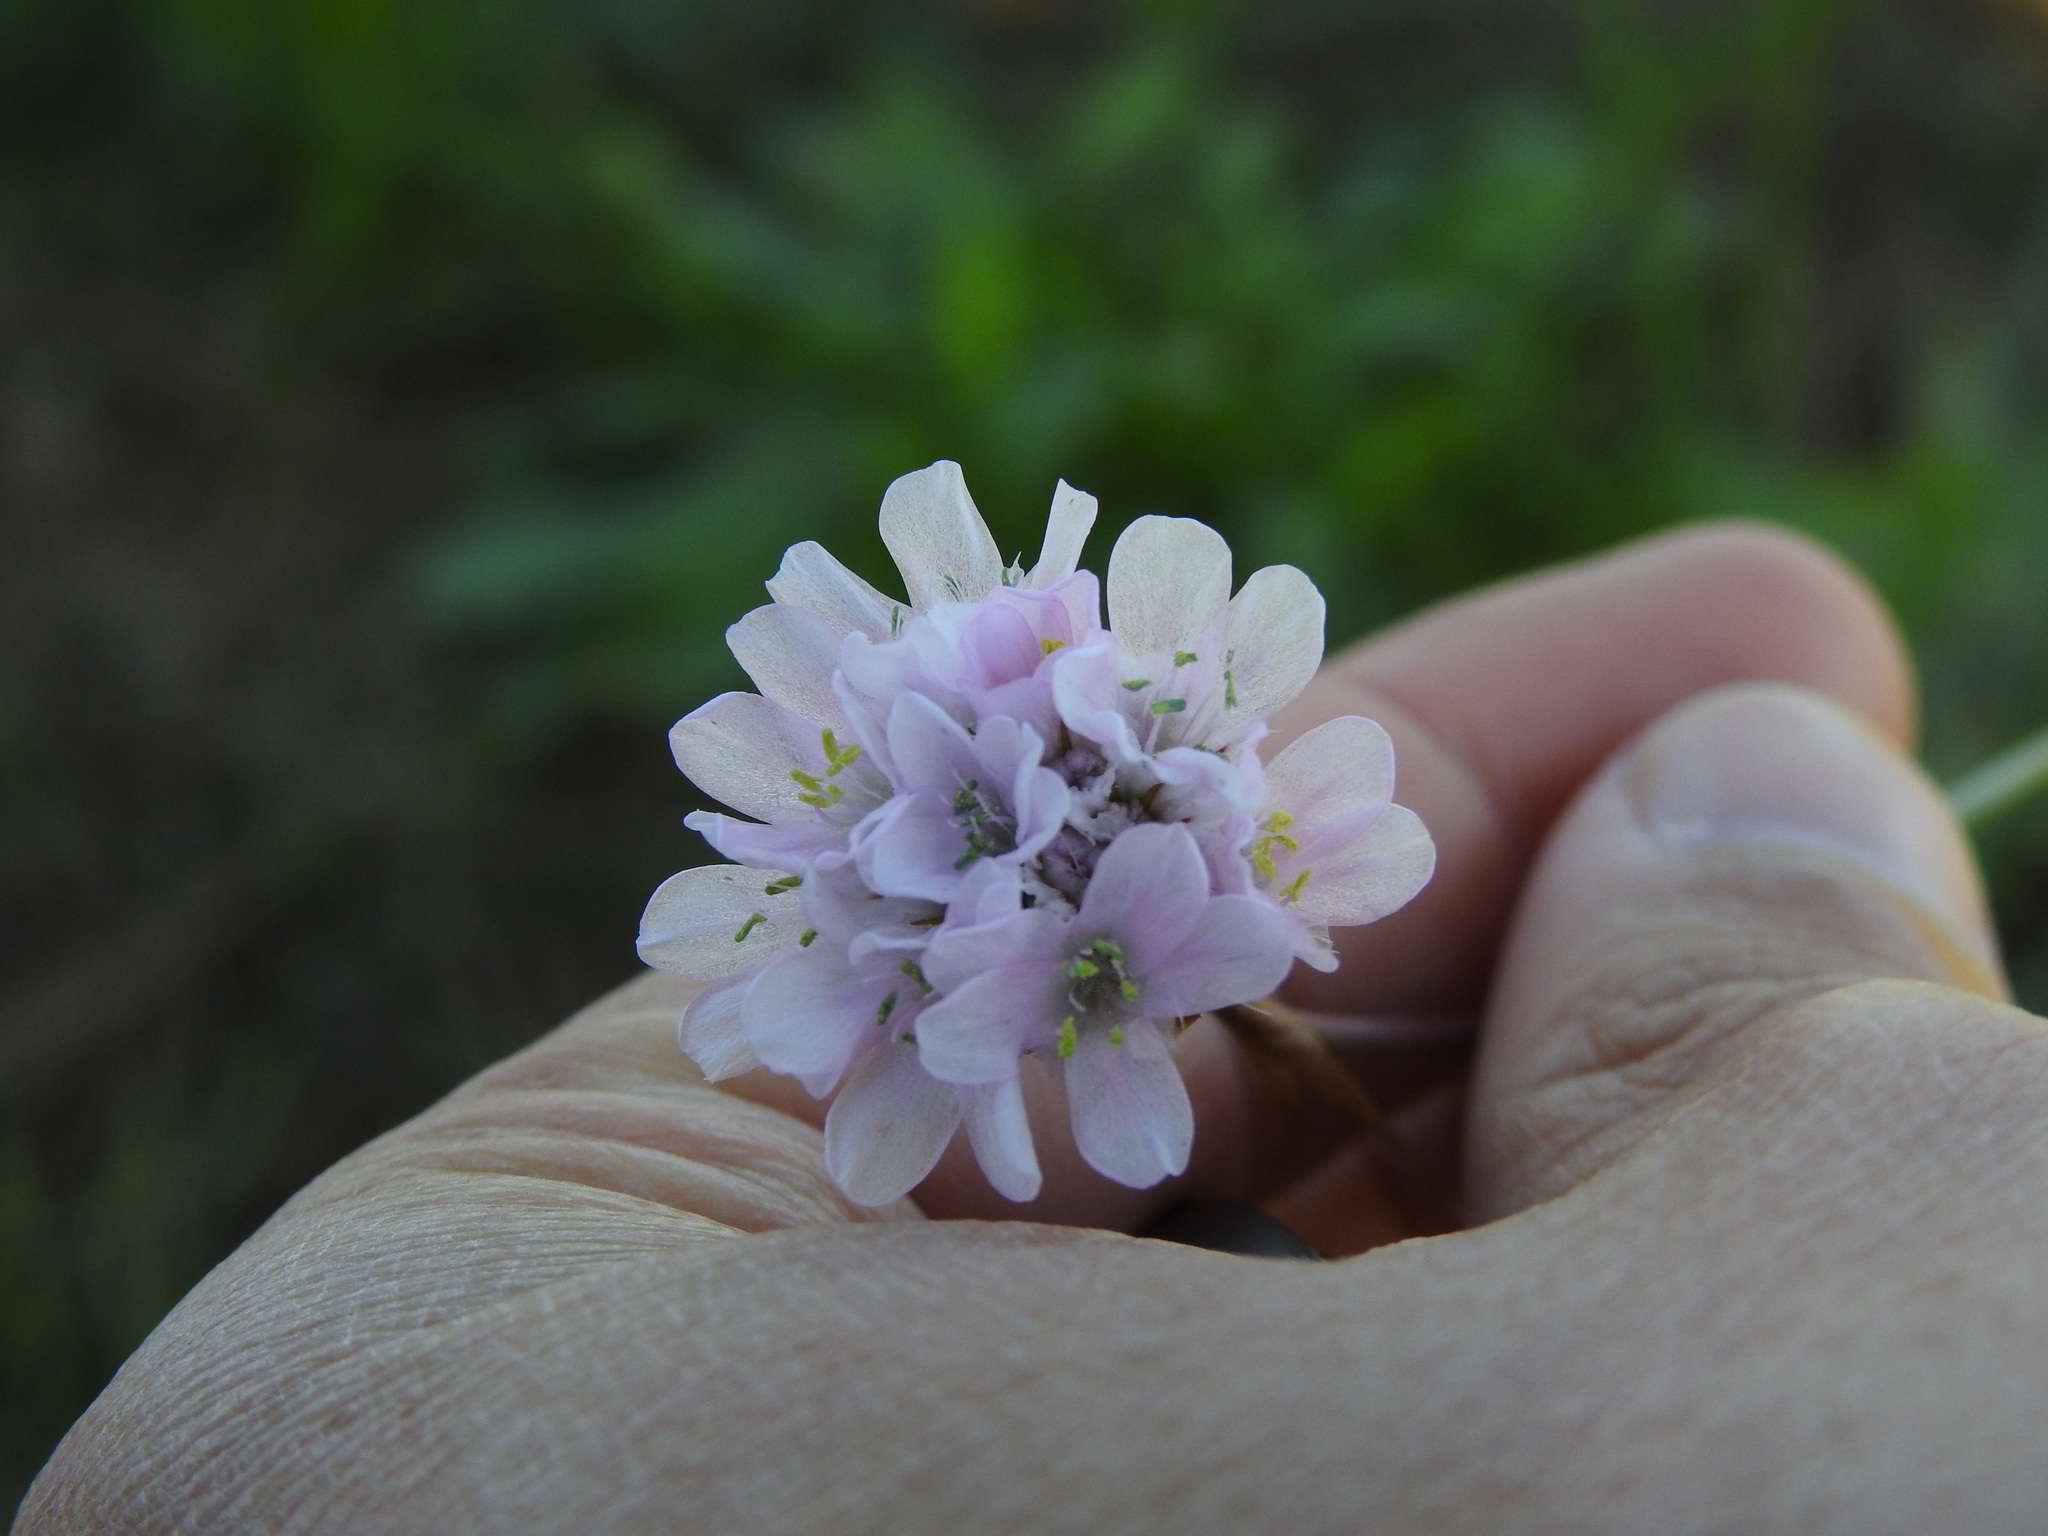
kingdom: Plantae
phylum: Tracheophyta
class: Magnoliopsida
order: Caryophyllales
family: Plumbaginaceae
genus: Armeria
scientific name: Armeria macrophylla
